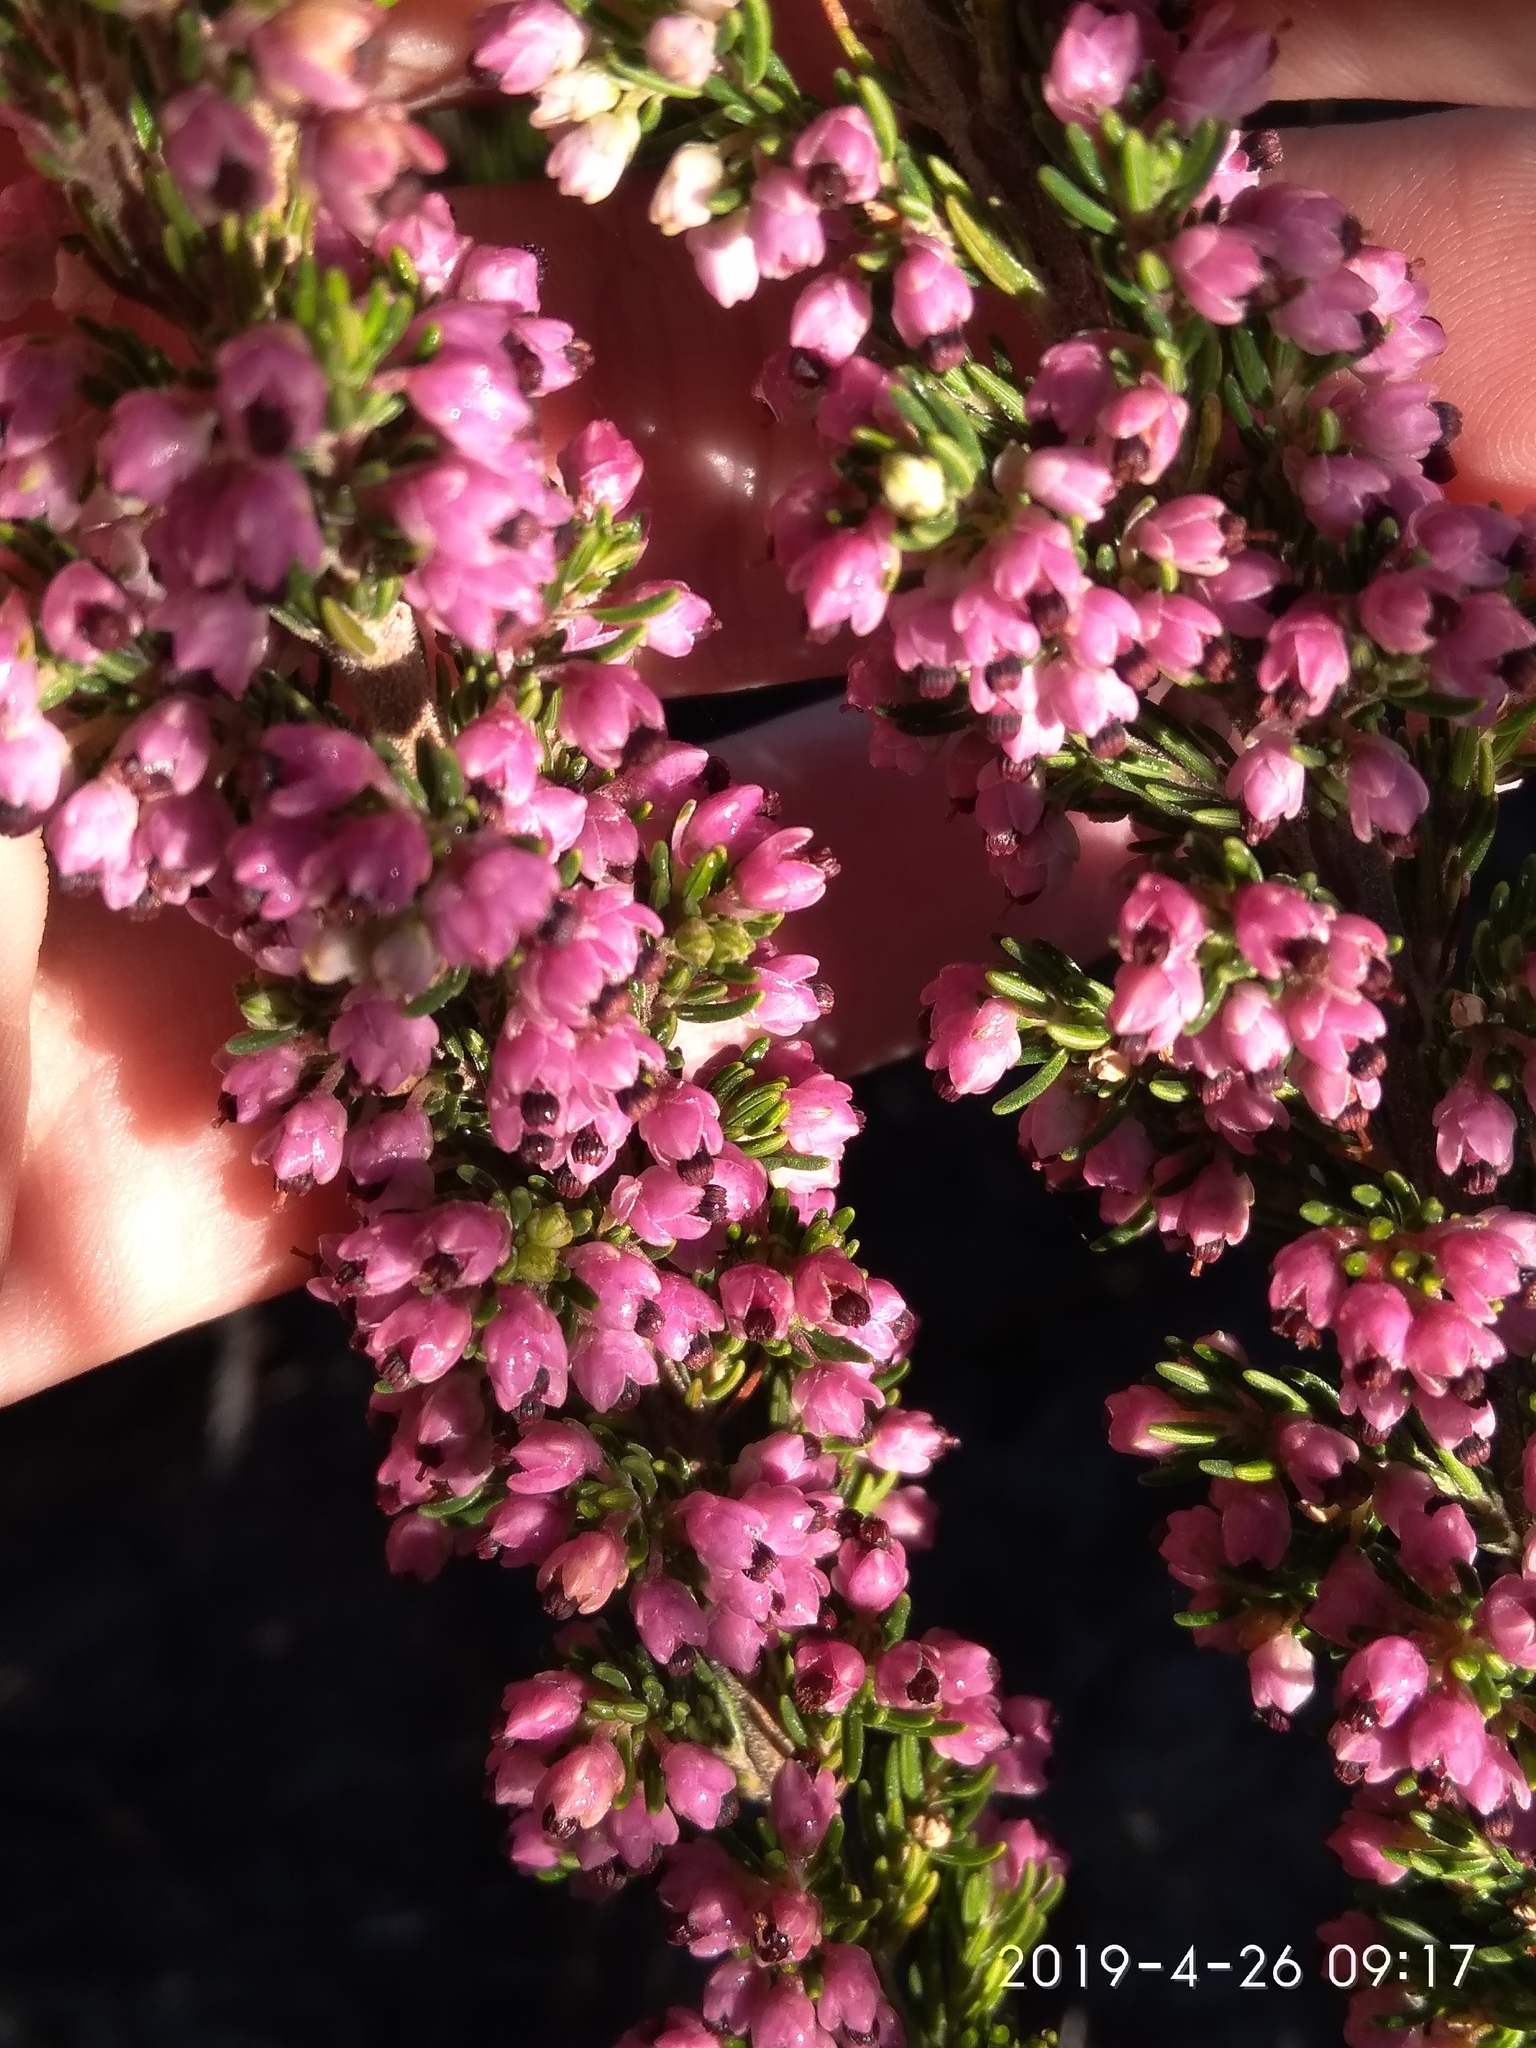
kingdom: Plantae
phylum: Tracheophyta
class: Magnoliopsida
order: Ericales
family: Ericaceae
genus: Erica
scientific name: Erica placentiflora
